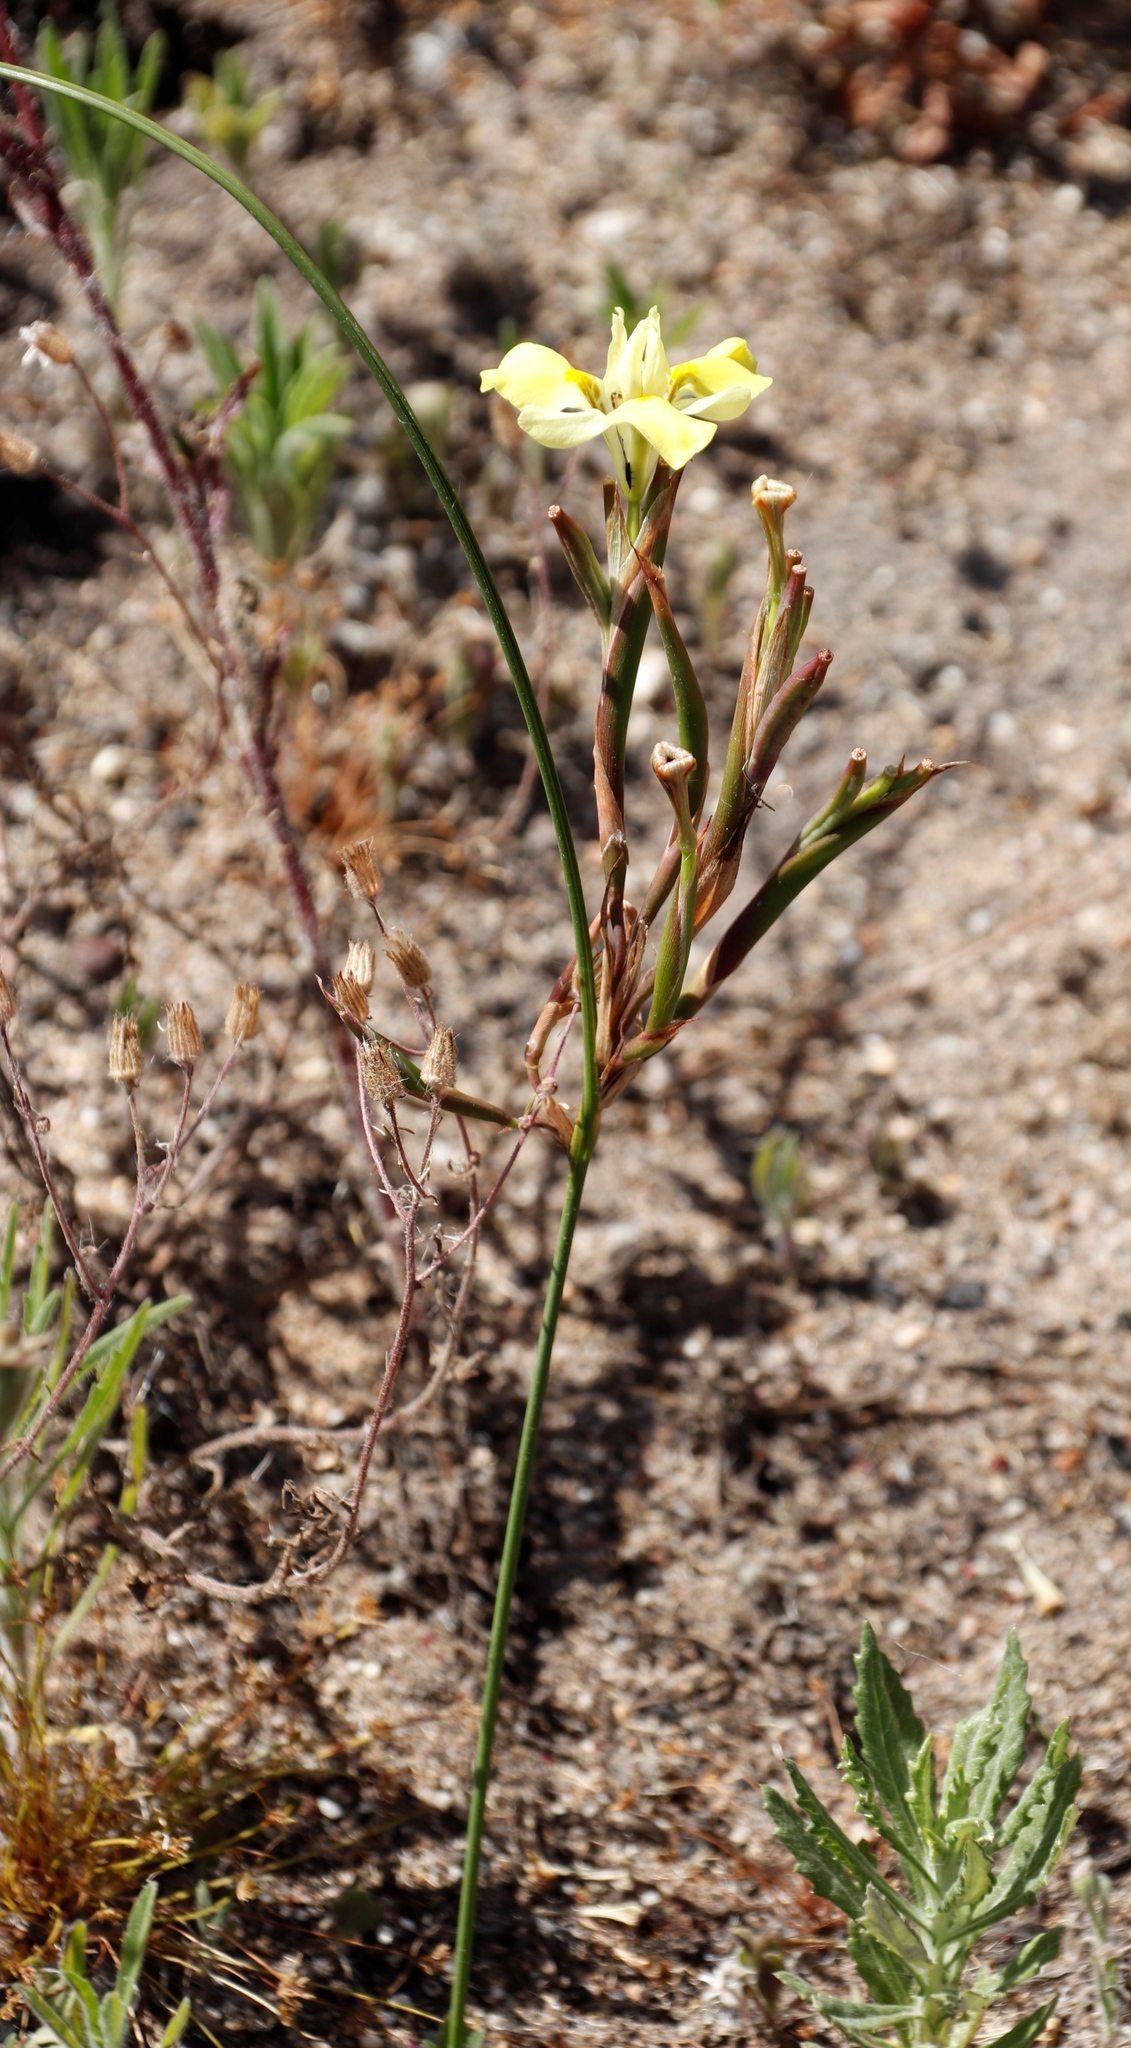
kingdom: Plantae
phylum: Tracheophyta
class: Liliopsida
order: Asparagales
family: Iridaceae
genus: Moraea
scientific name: Moraea fugax
